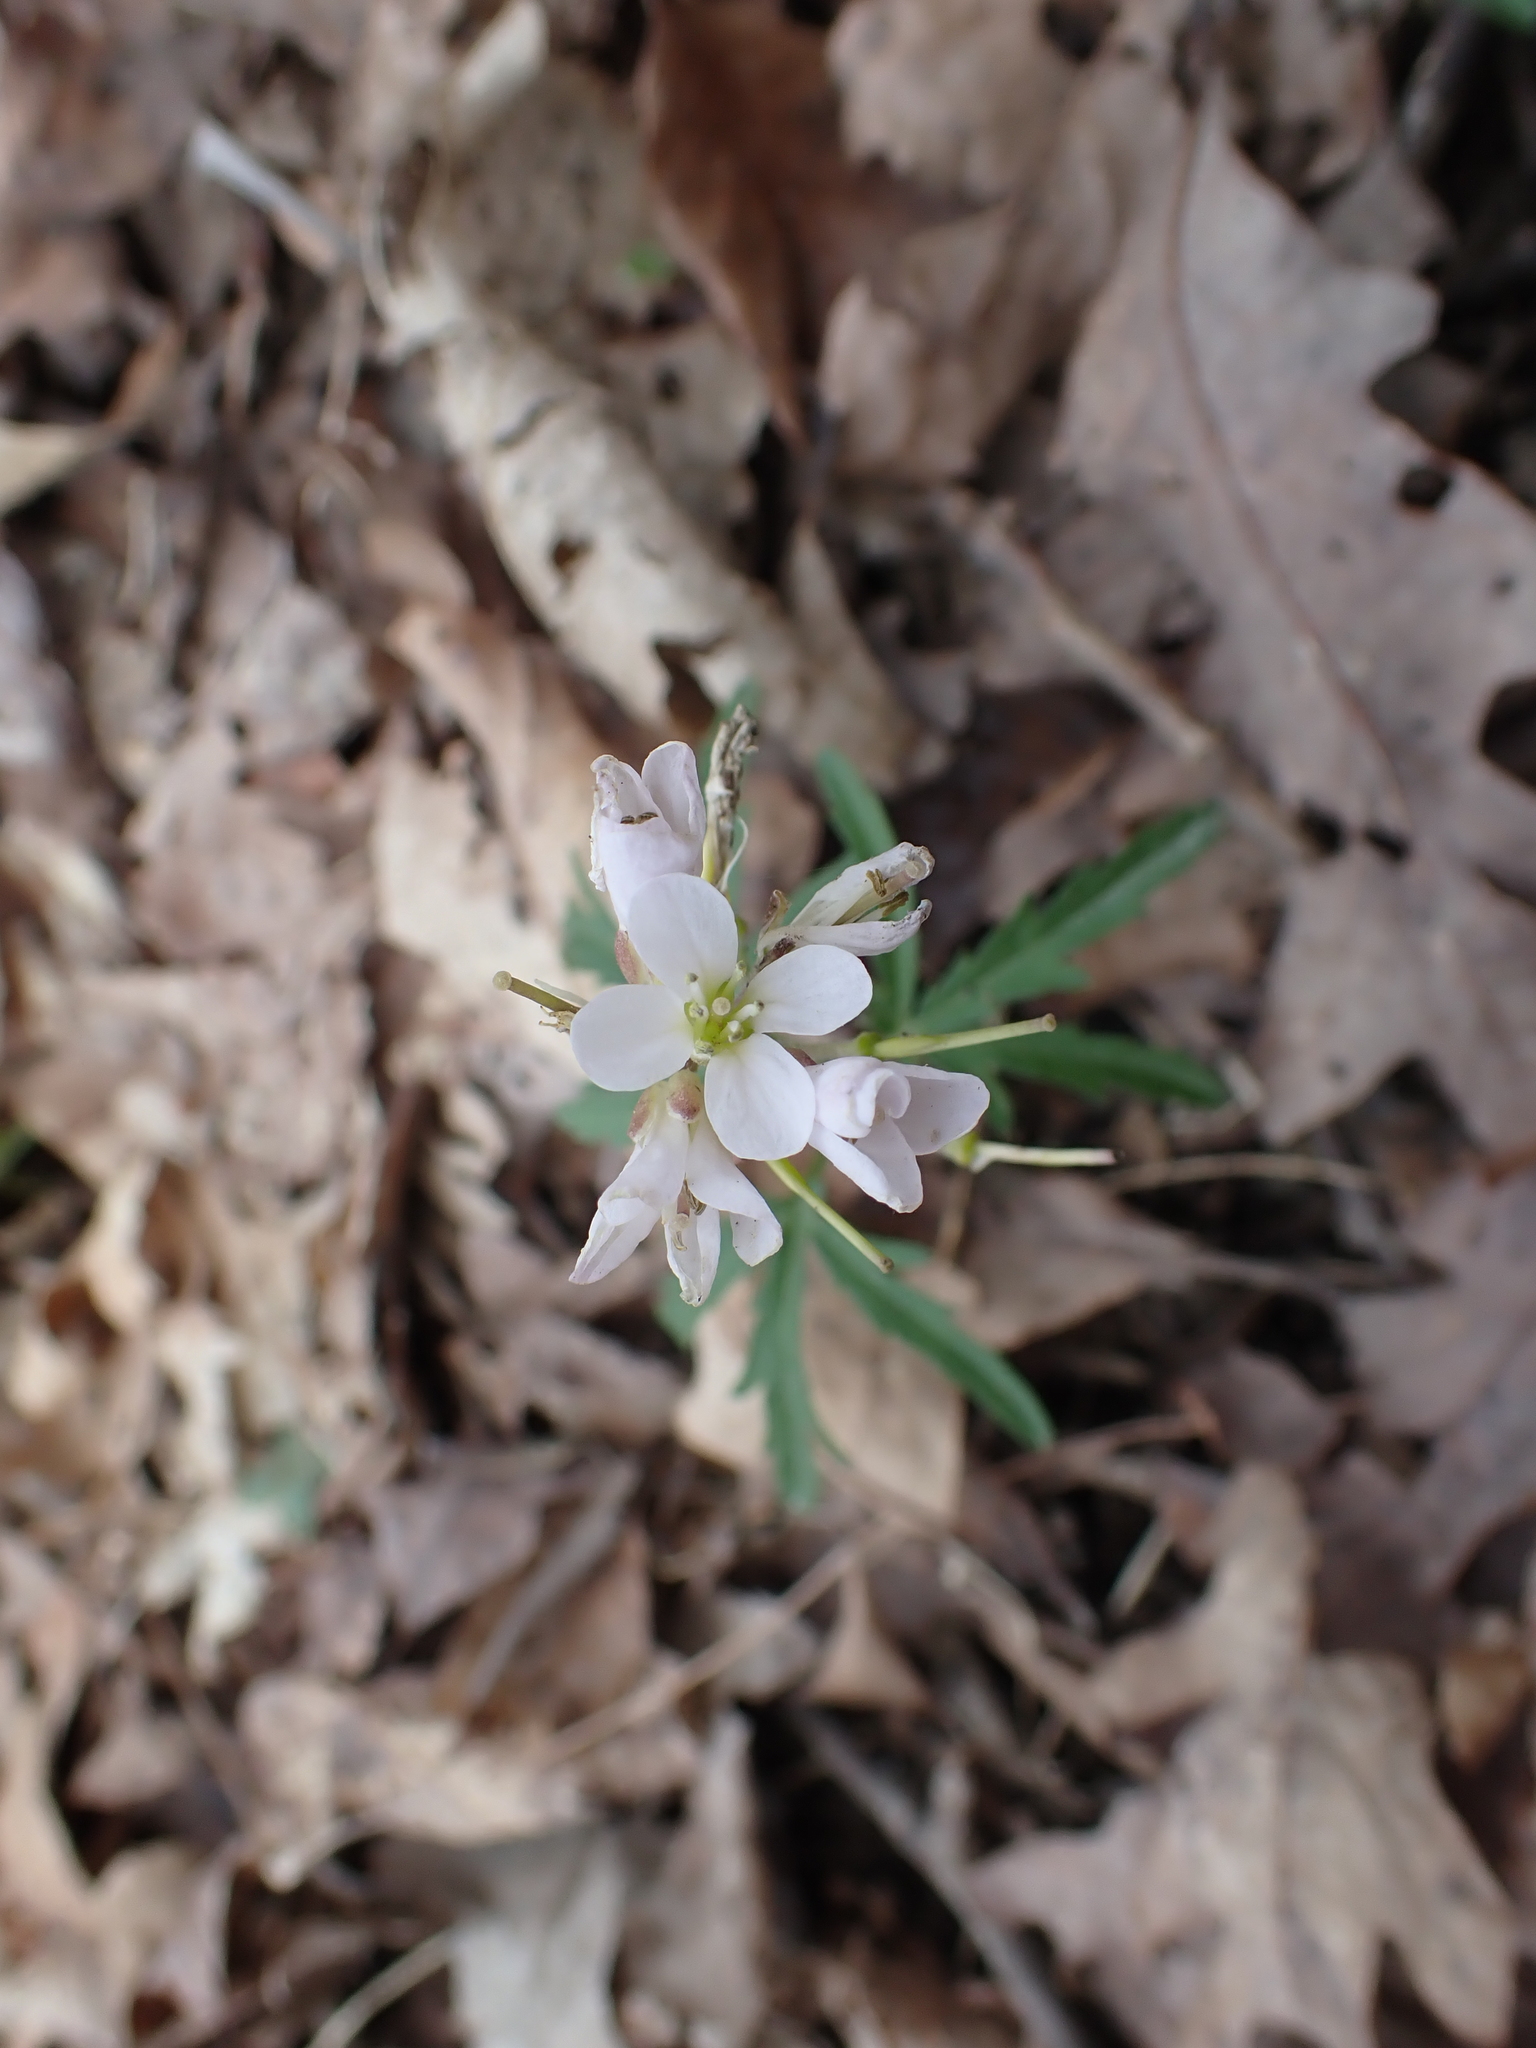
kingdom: Plantae
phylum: Tracheophyta
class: Magnoliopsida
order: Brassicales
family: Brassicaceae
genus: Cardamine
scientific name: Cardamine concatenata
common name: Cut-leaf toothcup
